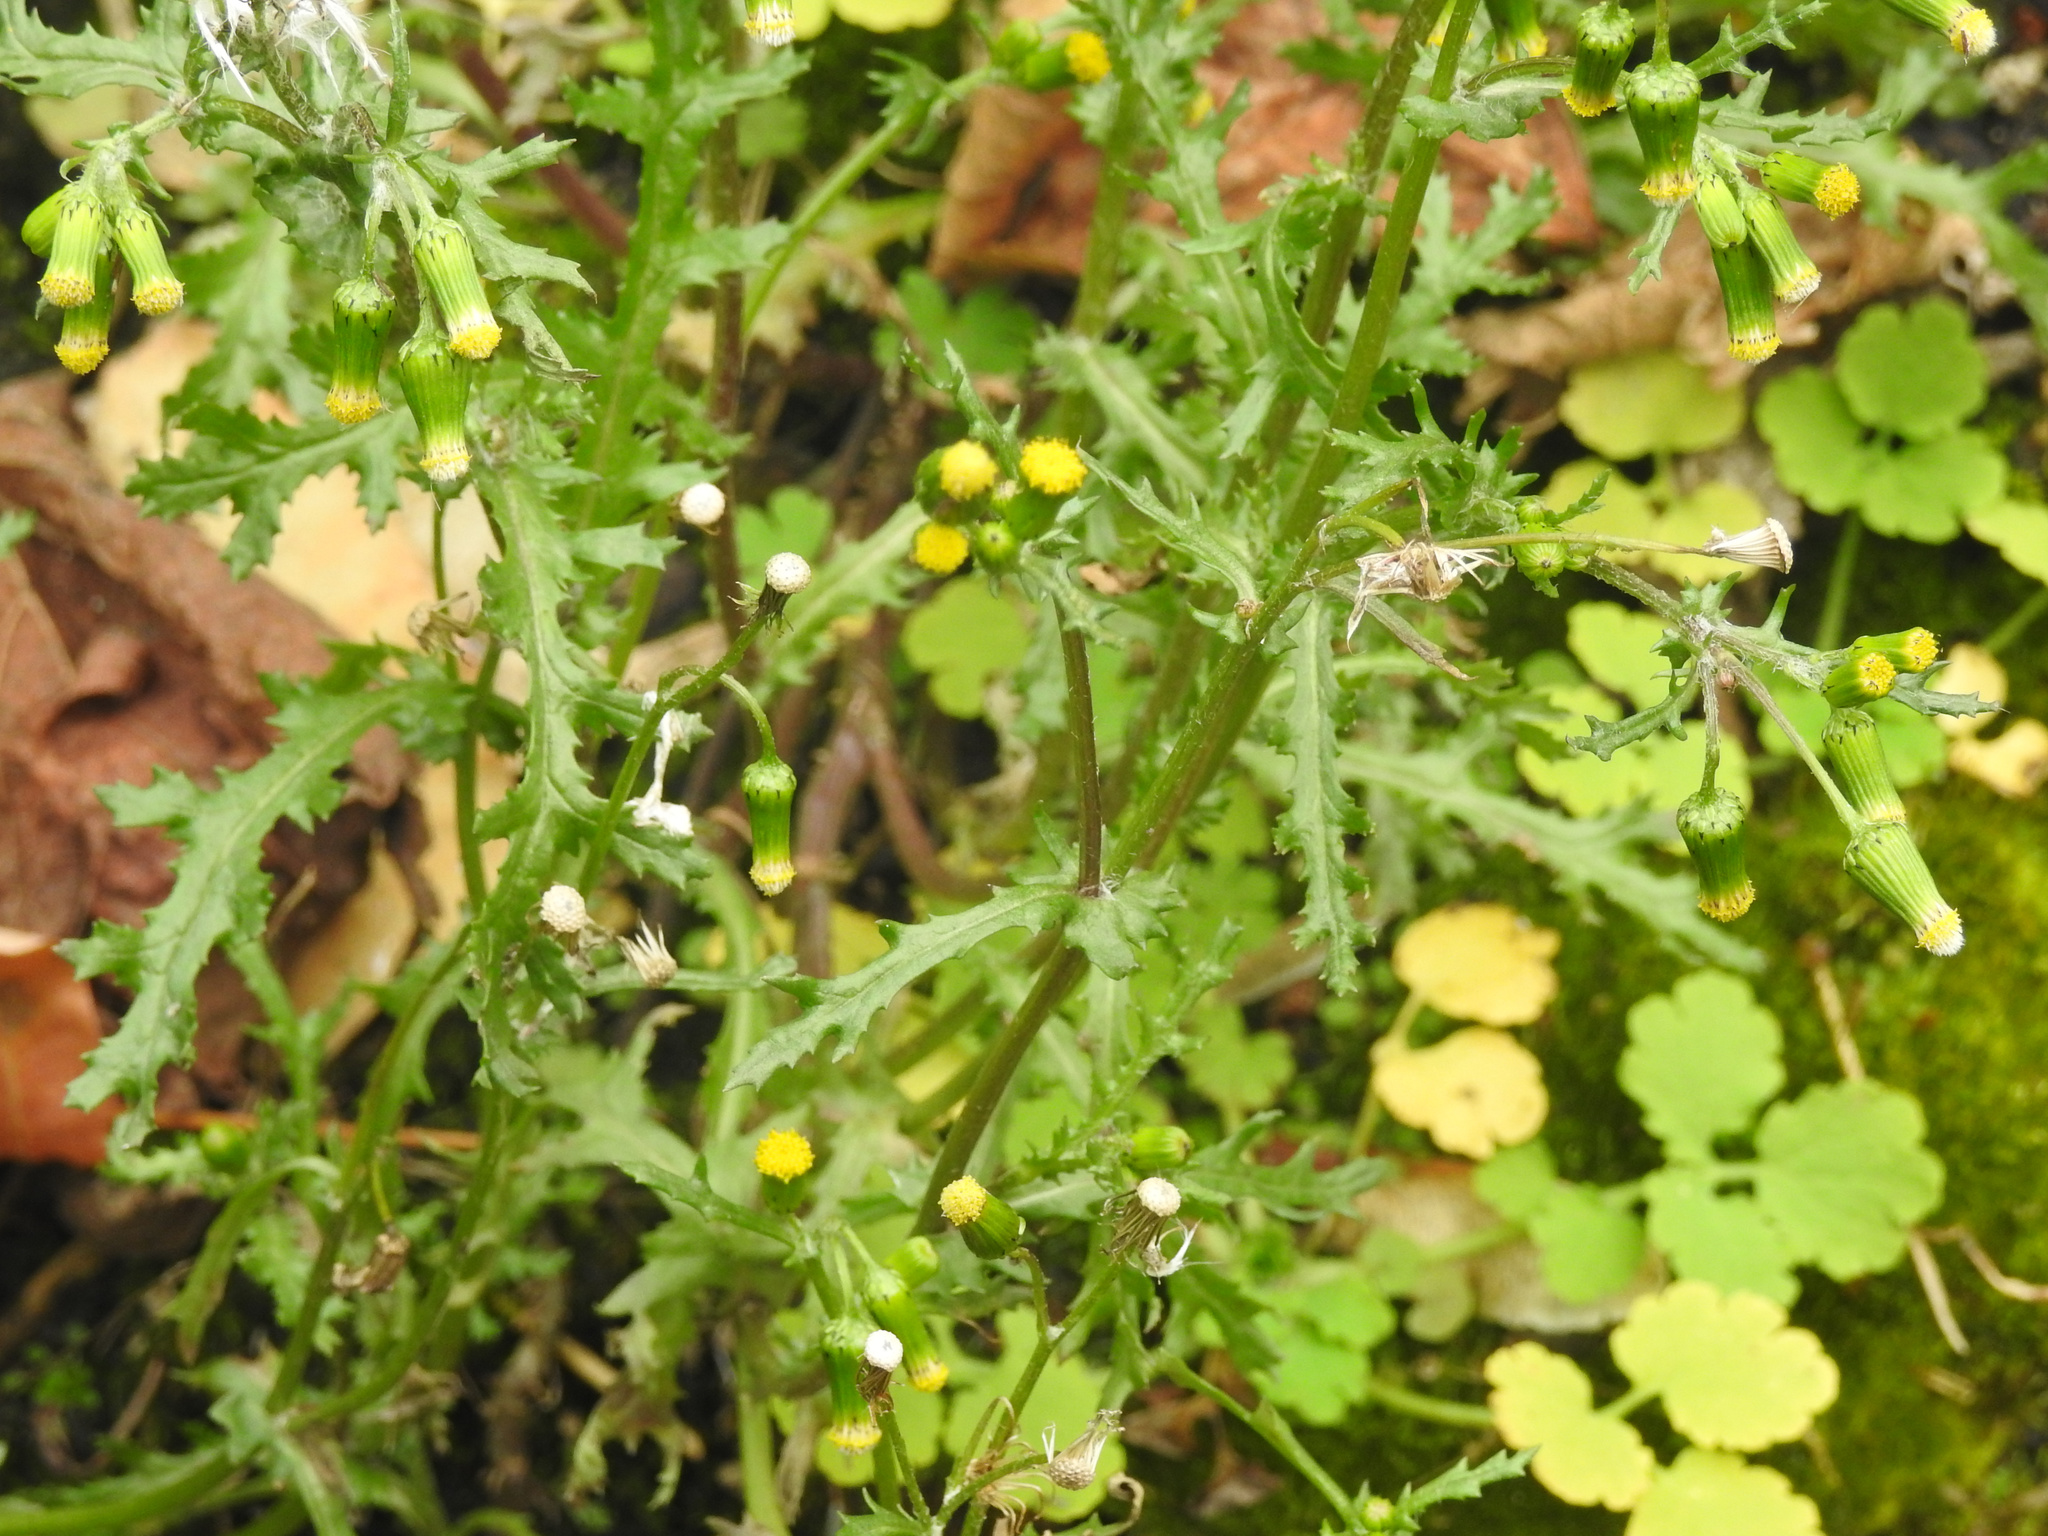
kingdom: Plantae
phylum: Tracheophyta
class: Magnoliopsida
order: Asterales
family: Asteraceae
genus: Senecio
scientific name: Senecio vulgaris
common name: Old-man-in-the-spring
